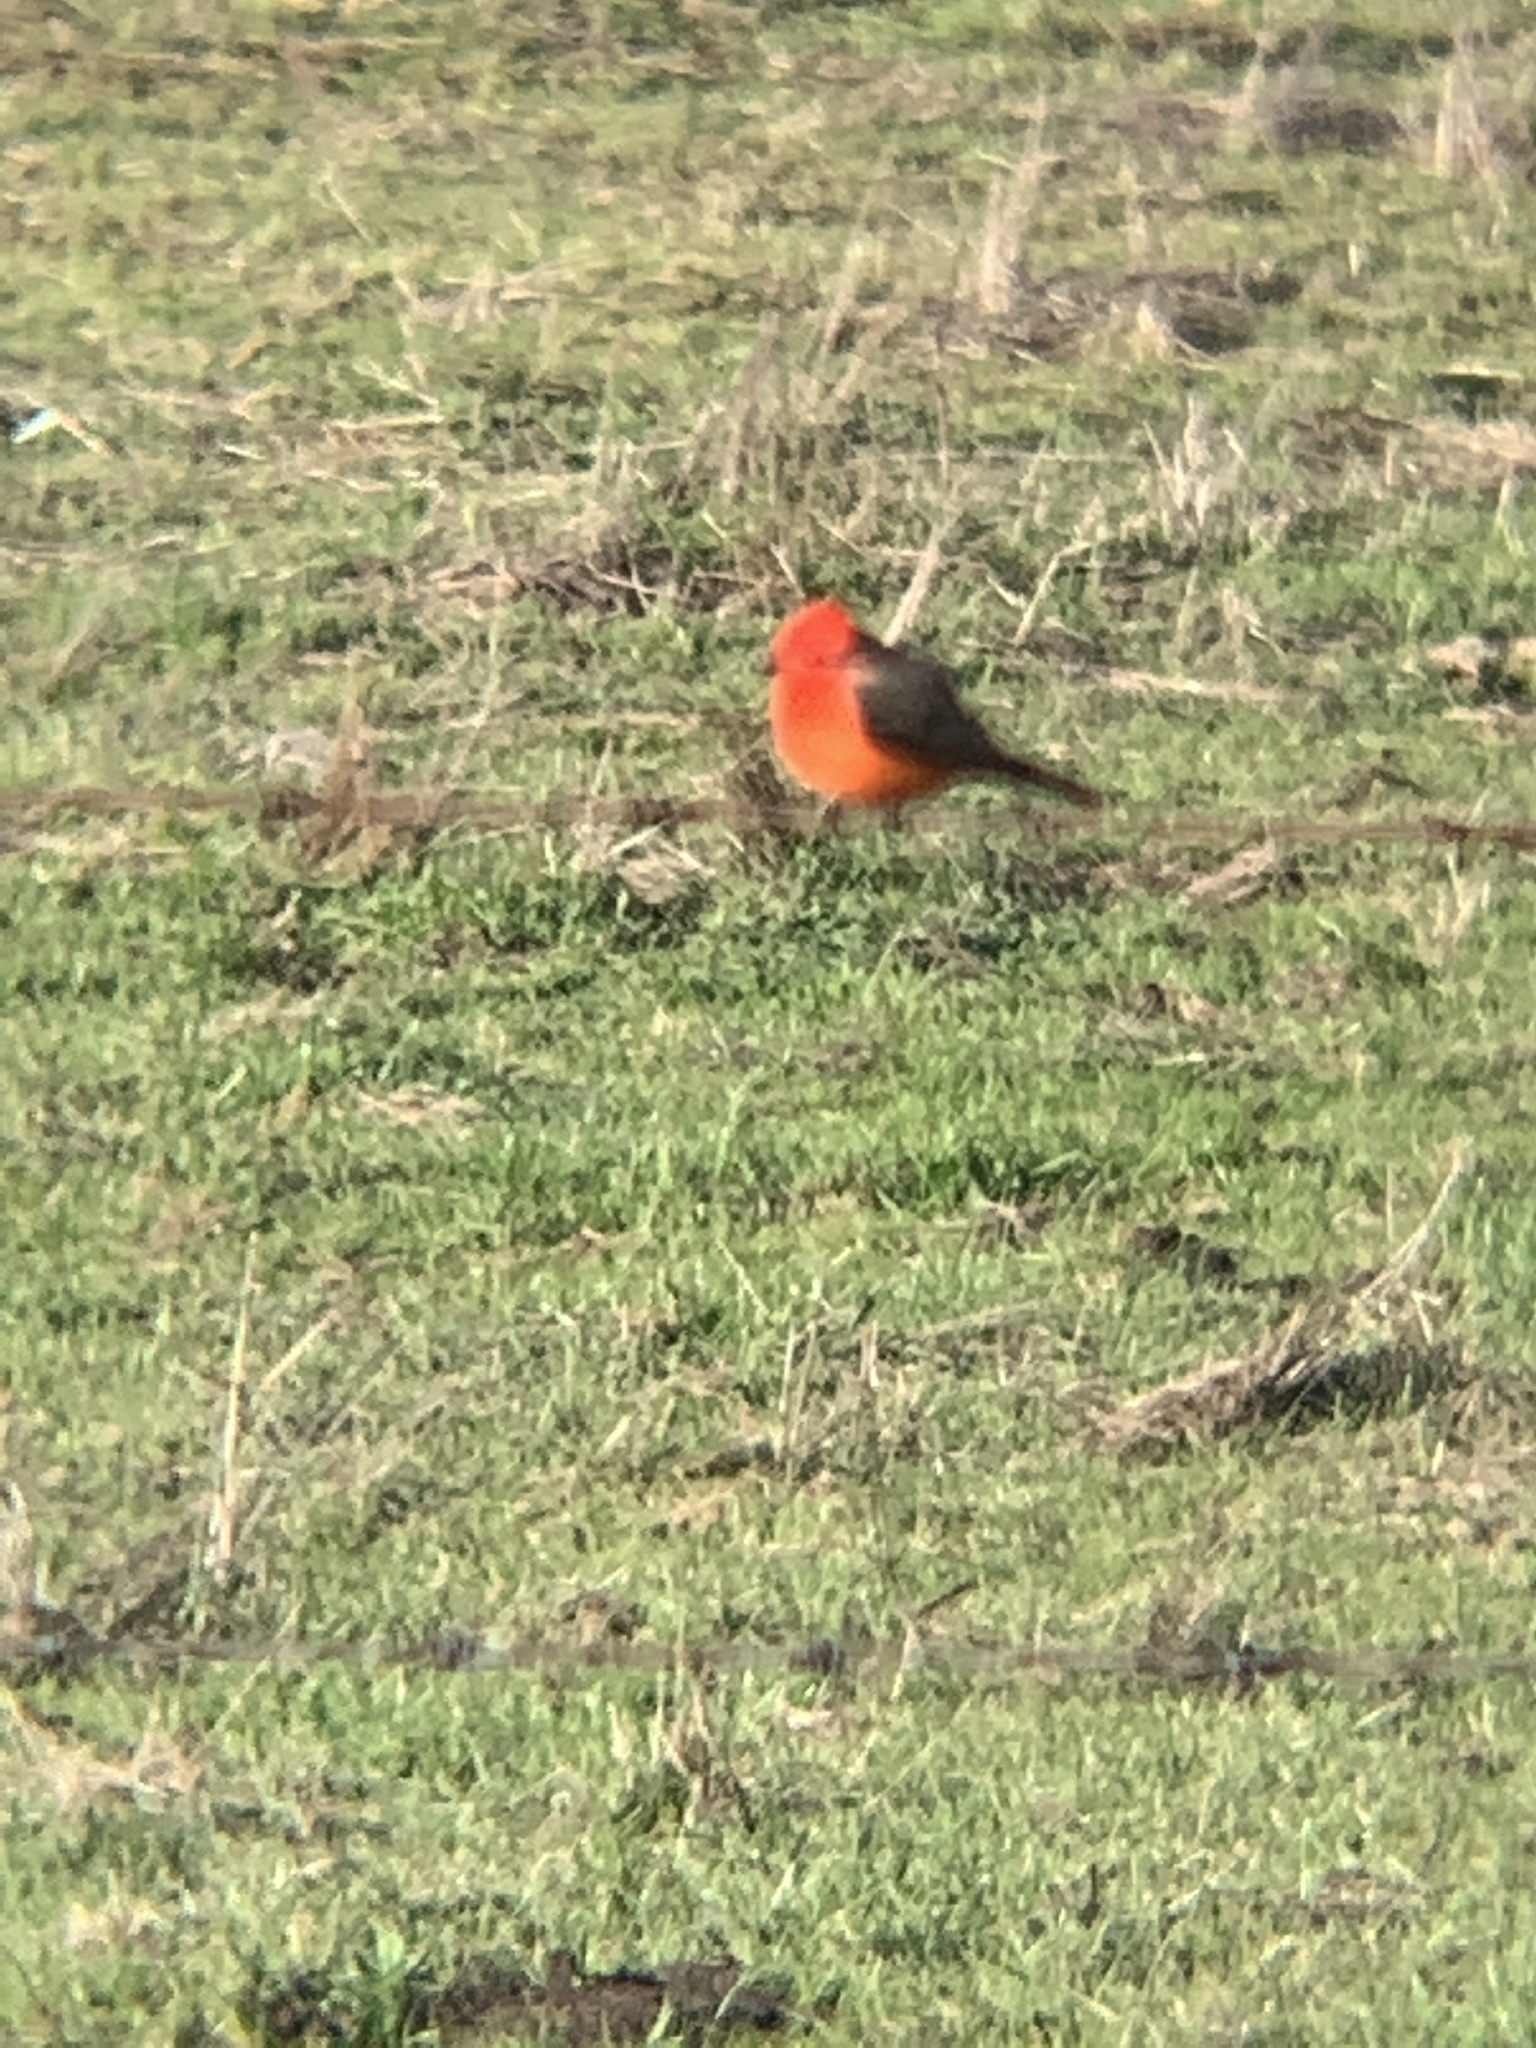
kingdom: Animalia
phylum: Chordata
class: Aves
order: Passeriformes
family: Tyrannidae
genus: Pyrocephalus
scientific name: Pyrocephalus rubinus
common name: Vermilion flycatcher
